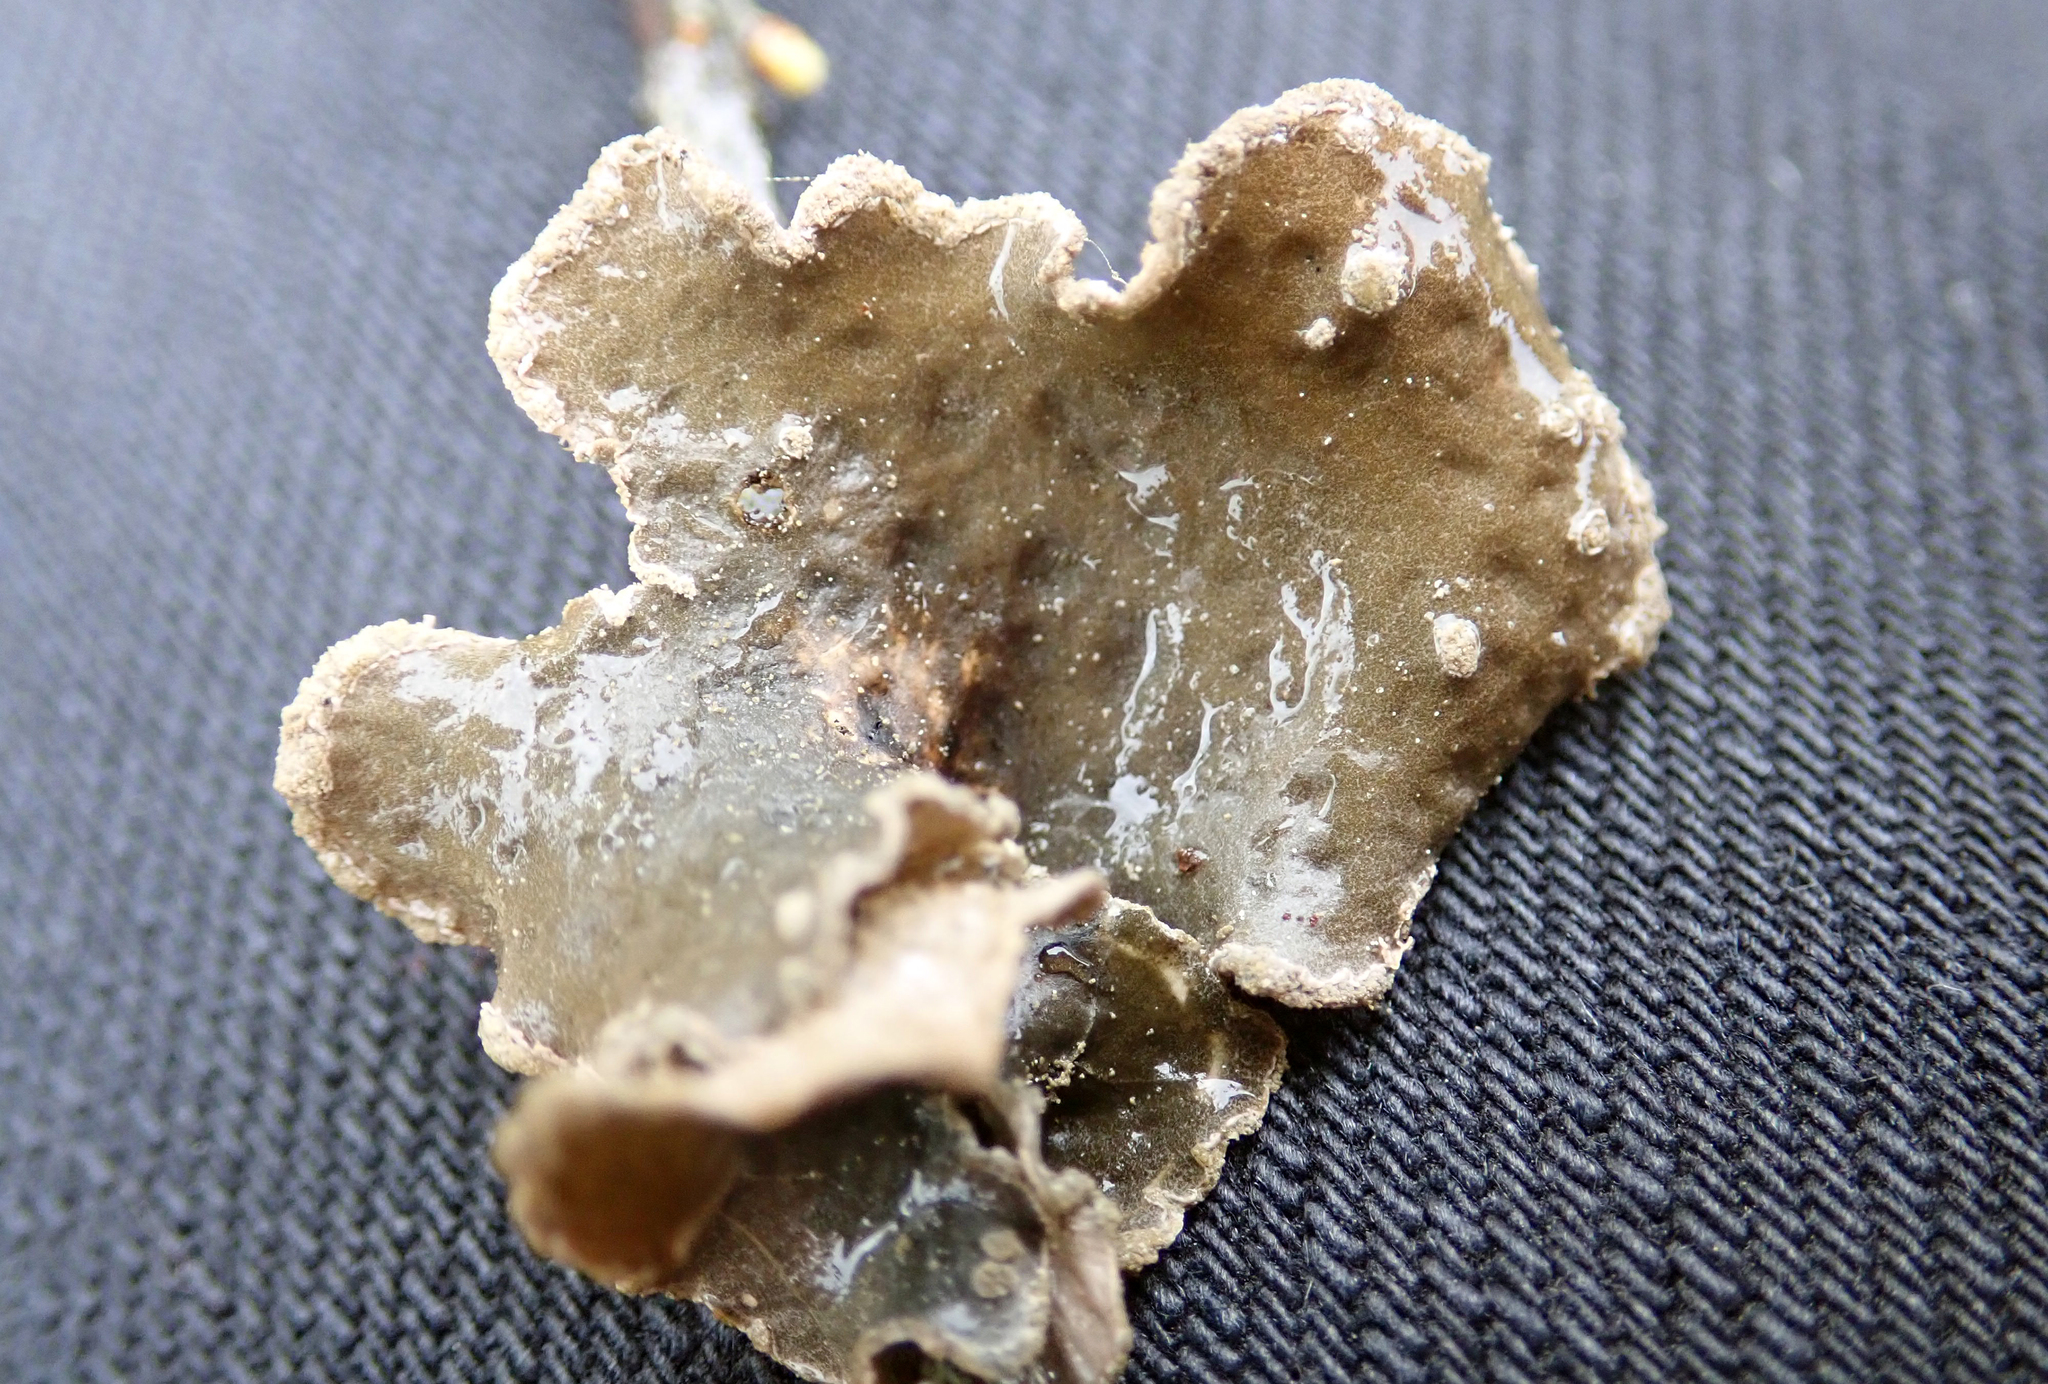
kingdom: Fungi
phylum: Ascomycota
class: Lecanoromycetes
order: Peltigerales
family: Lobariaceae
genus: Sticta
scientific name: Sticta limbata
